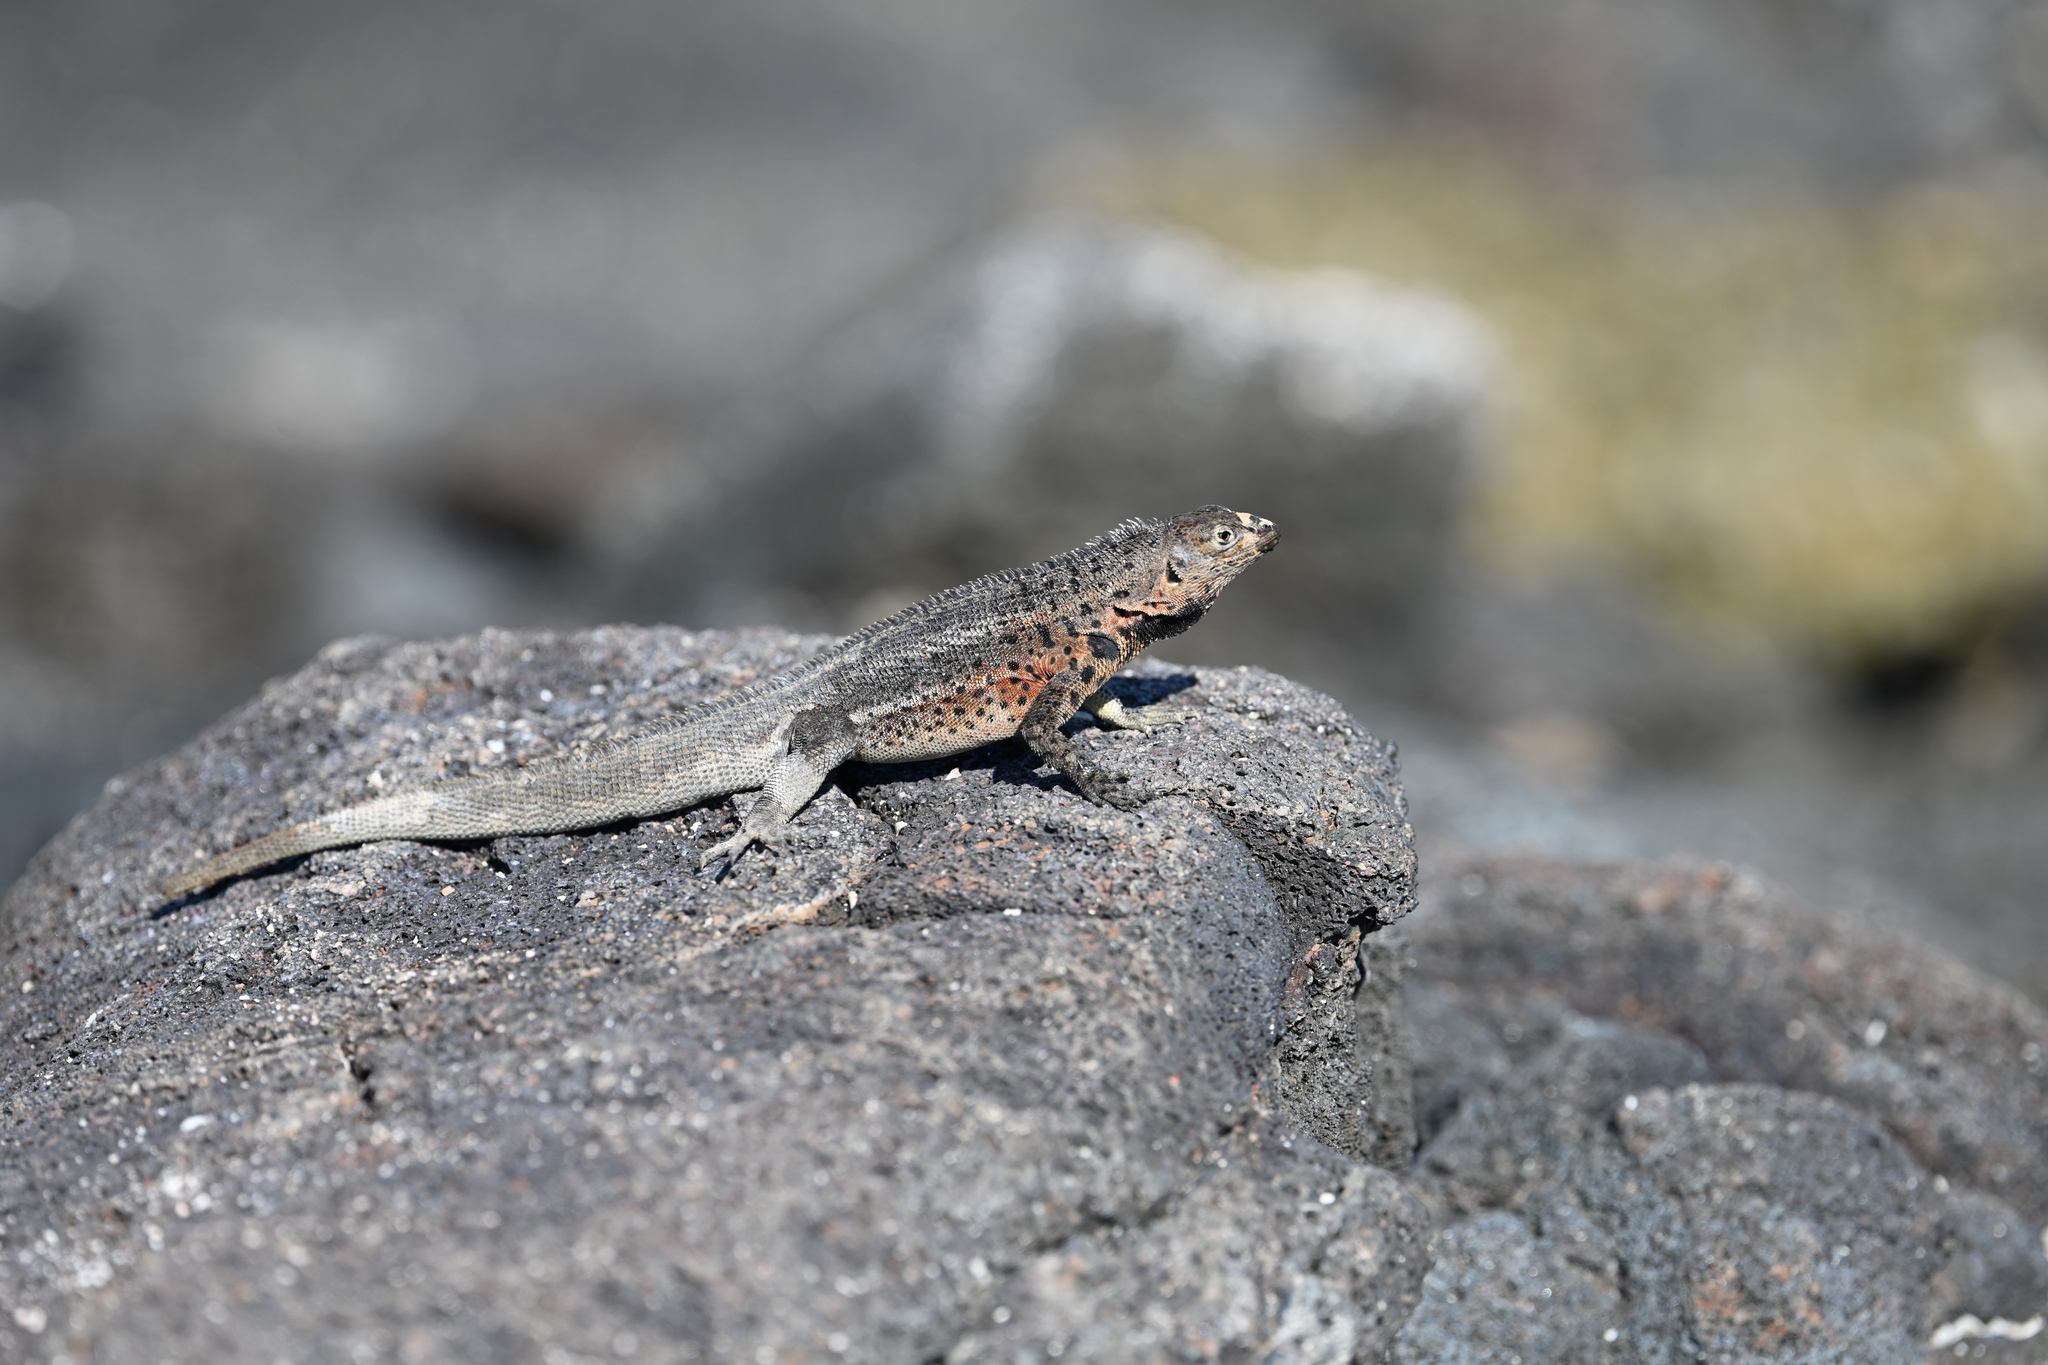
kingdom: Animalia
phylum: Chordata
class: Squamata
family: Tropiduridae
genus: Microlophus
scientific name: Microlophus jacobii
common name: Santiago lava lizard
